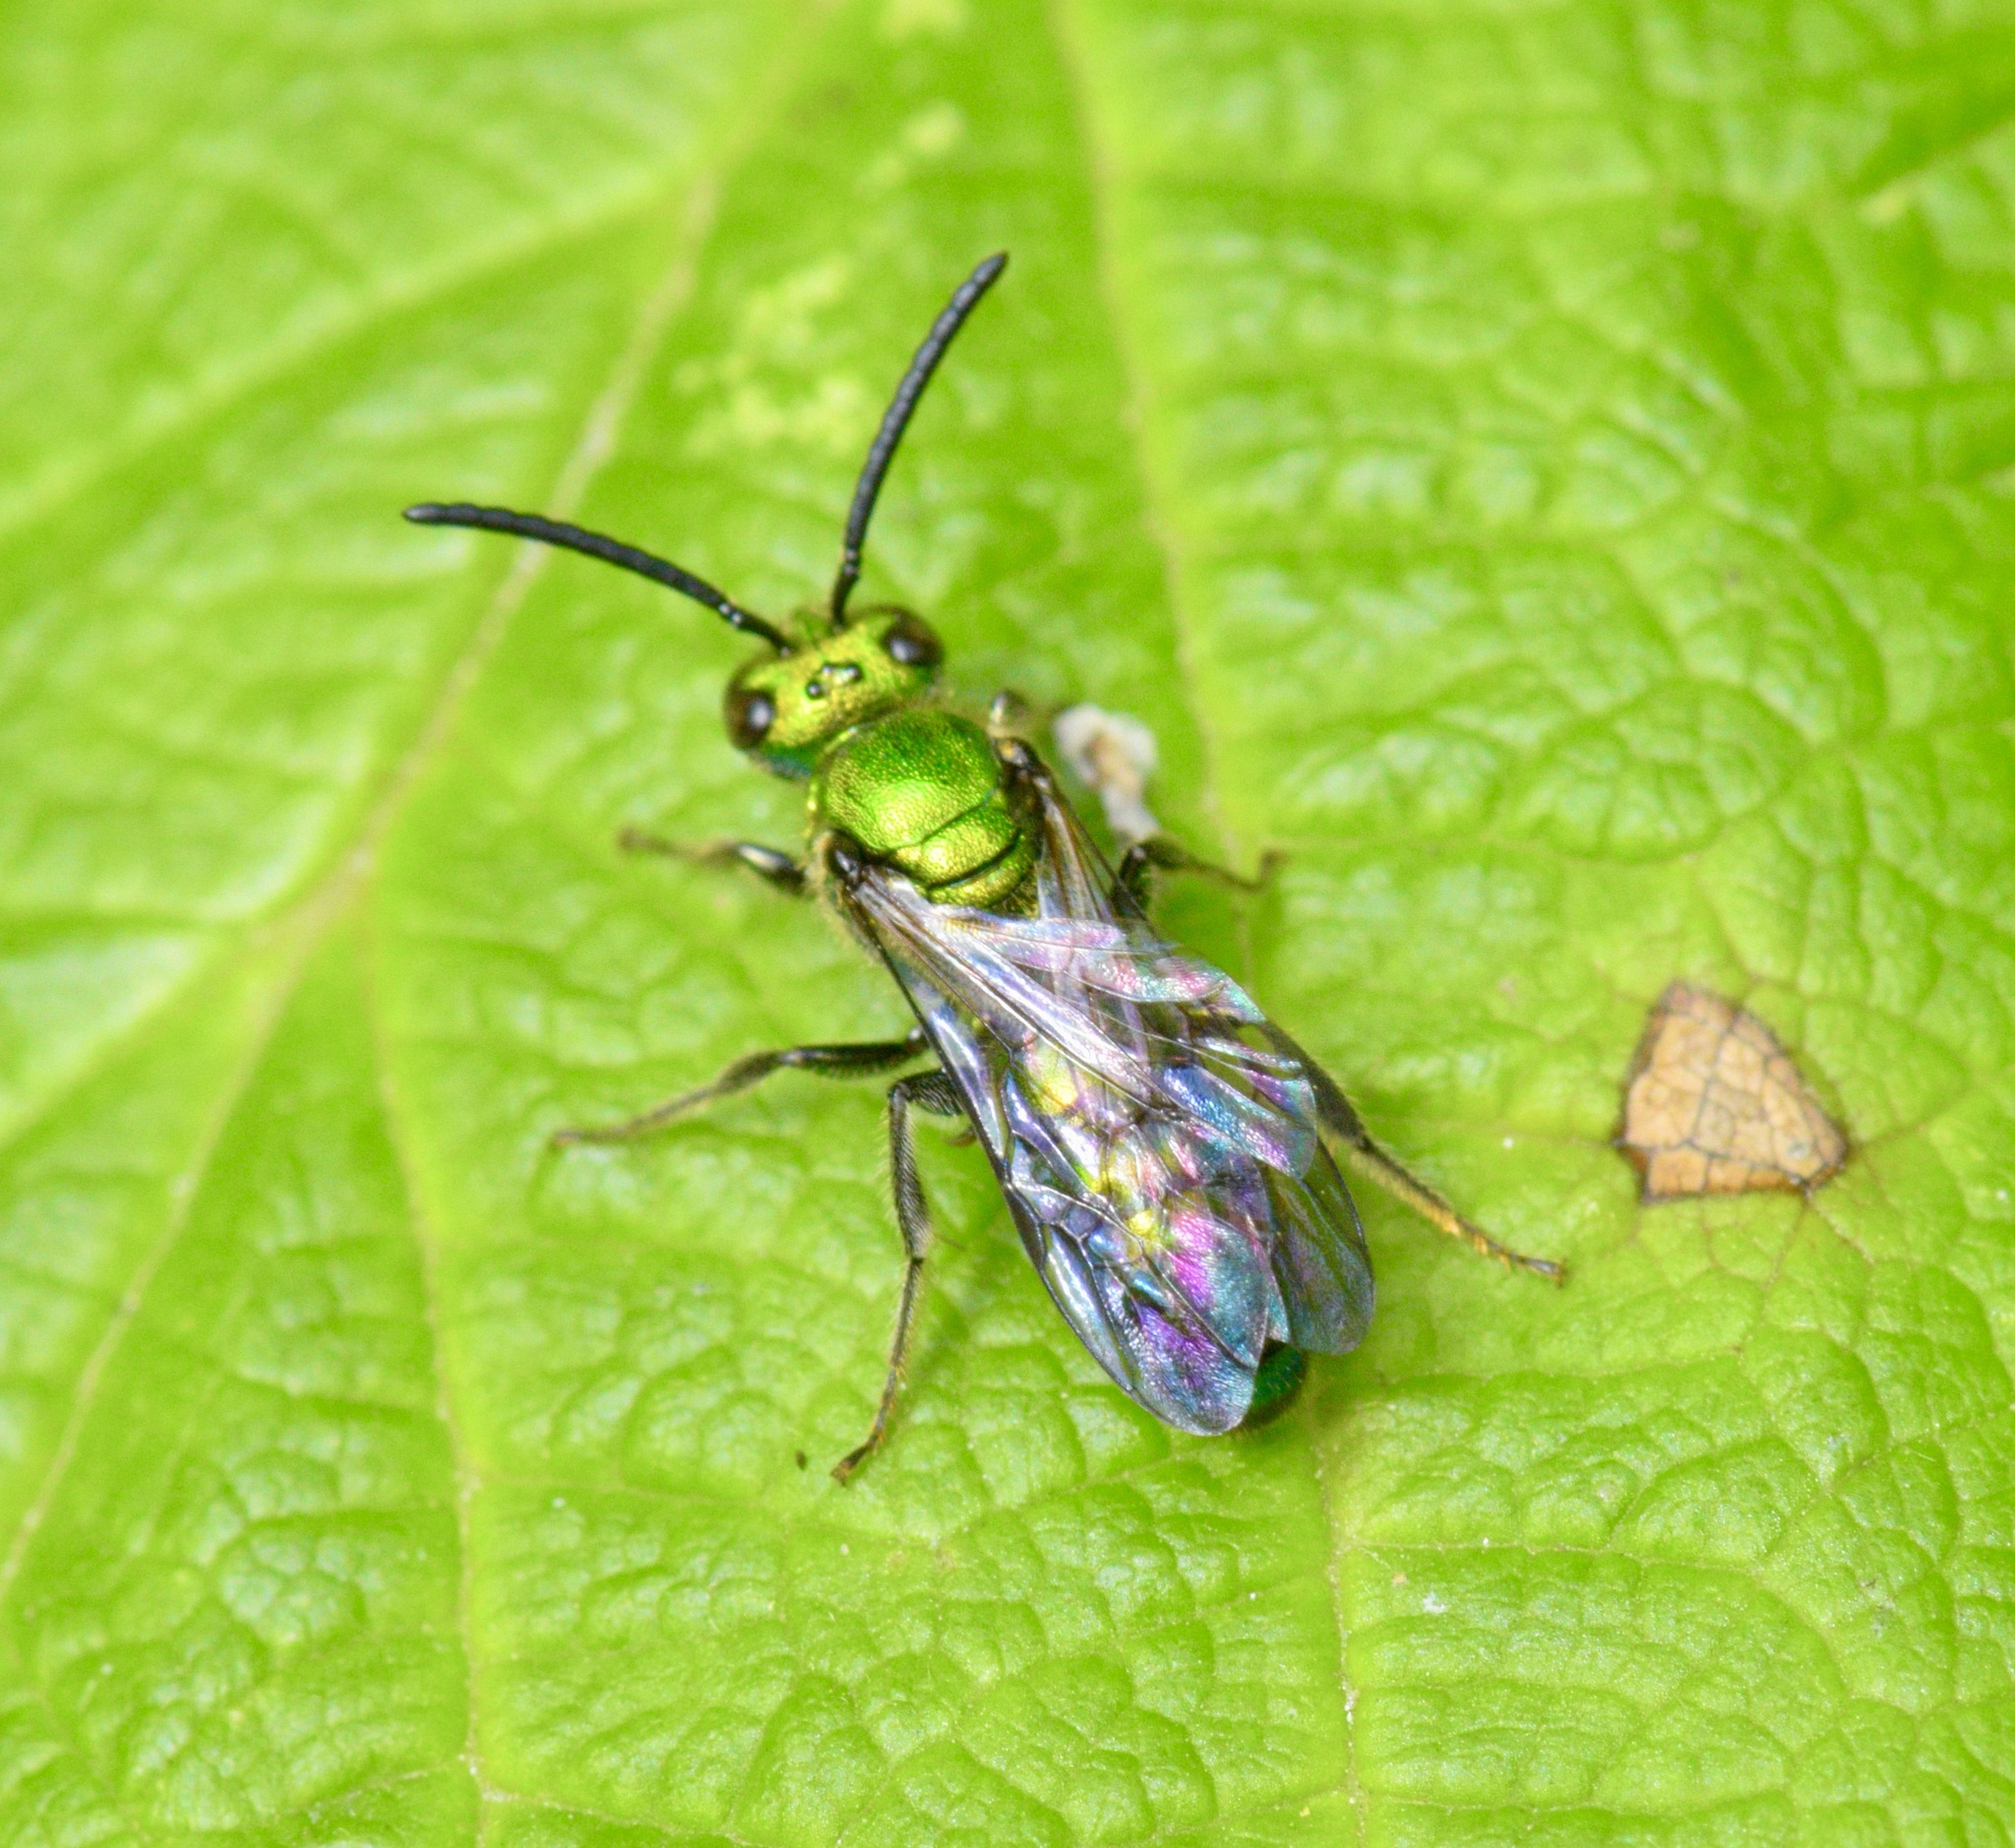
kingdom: Animalia
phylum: Arthropoda
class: Insecta
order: Hymenoptera
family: Halictidae
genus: Augochlora
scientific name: Augochlora pura
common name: Pure green sweat bee
